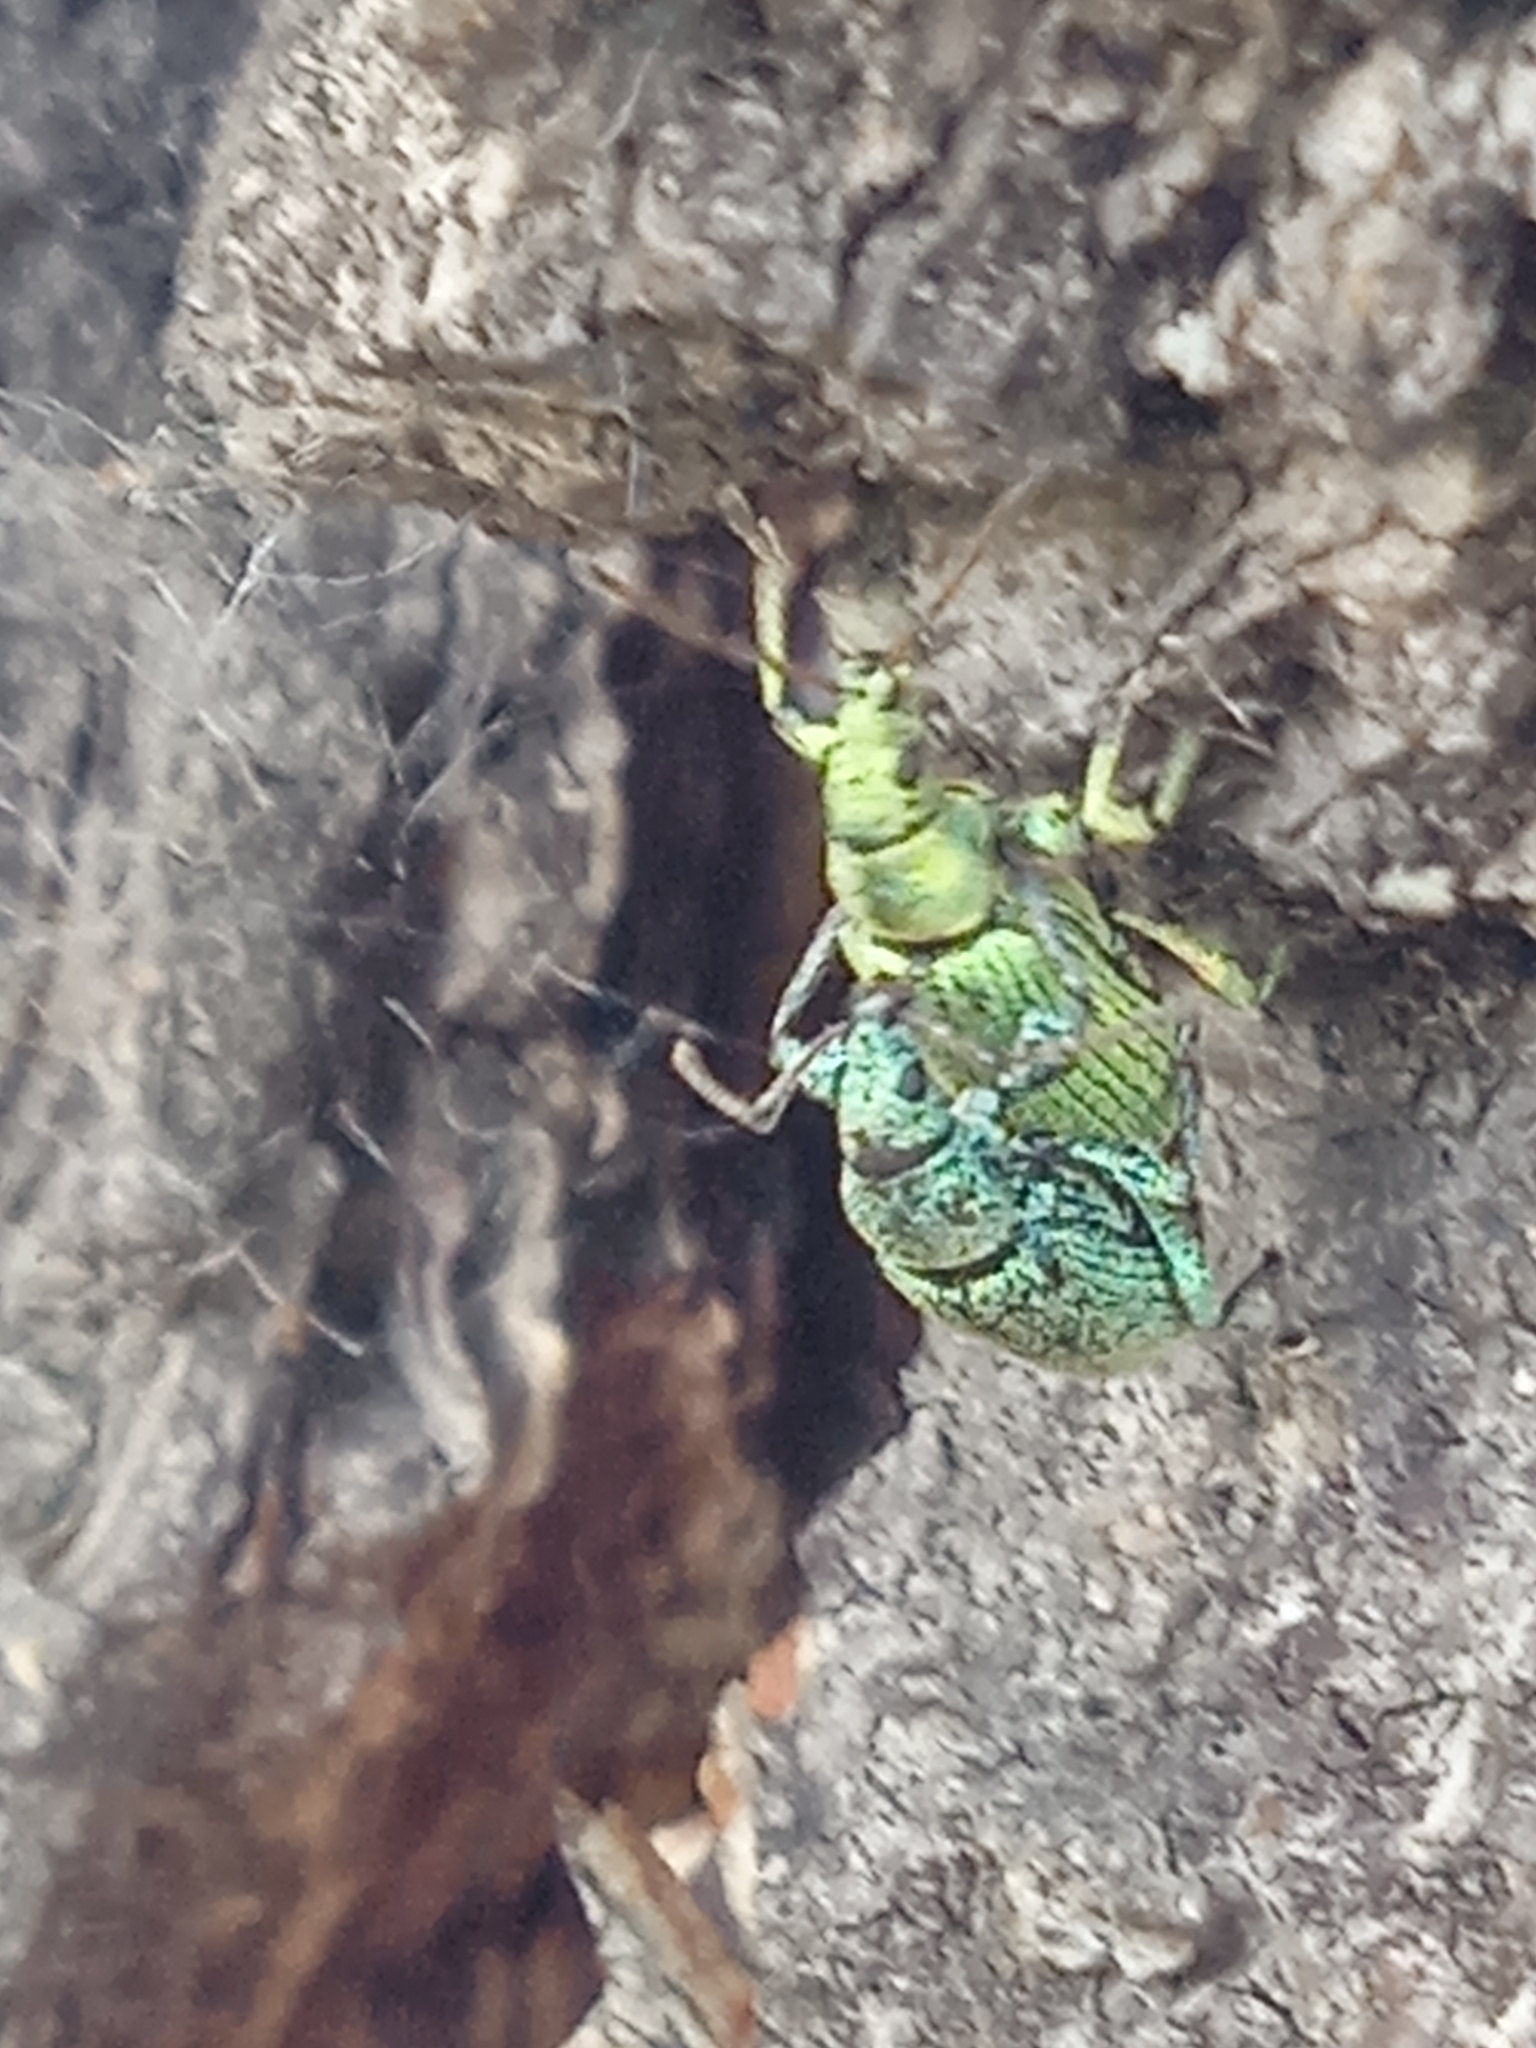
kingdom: Animalia
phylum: Arthropoda
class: Insecta
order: Coleoptera
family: Curculionidae
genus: Phyllobius
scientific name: Phyllobius maculicornis
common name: Green leaf weevil
